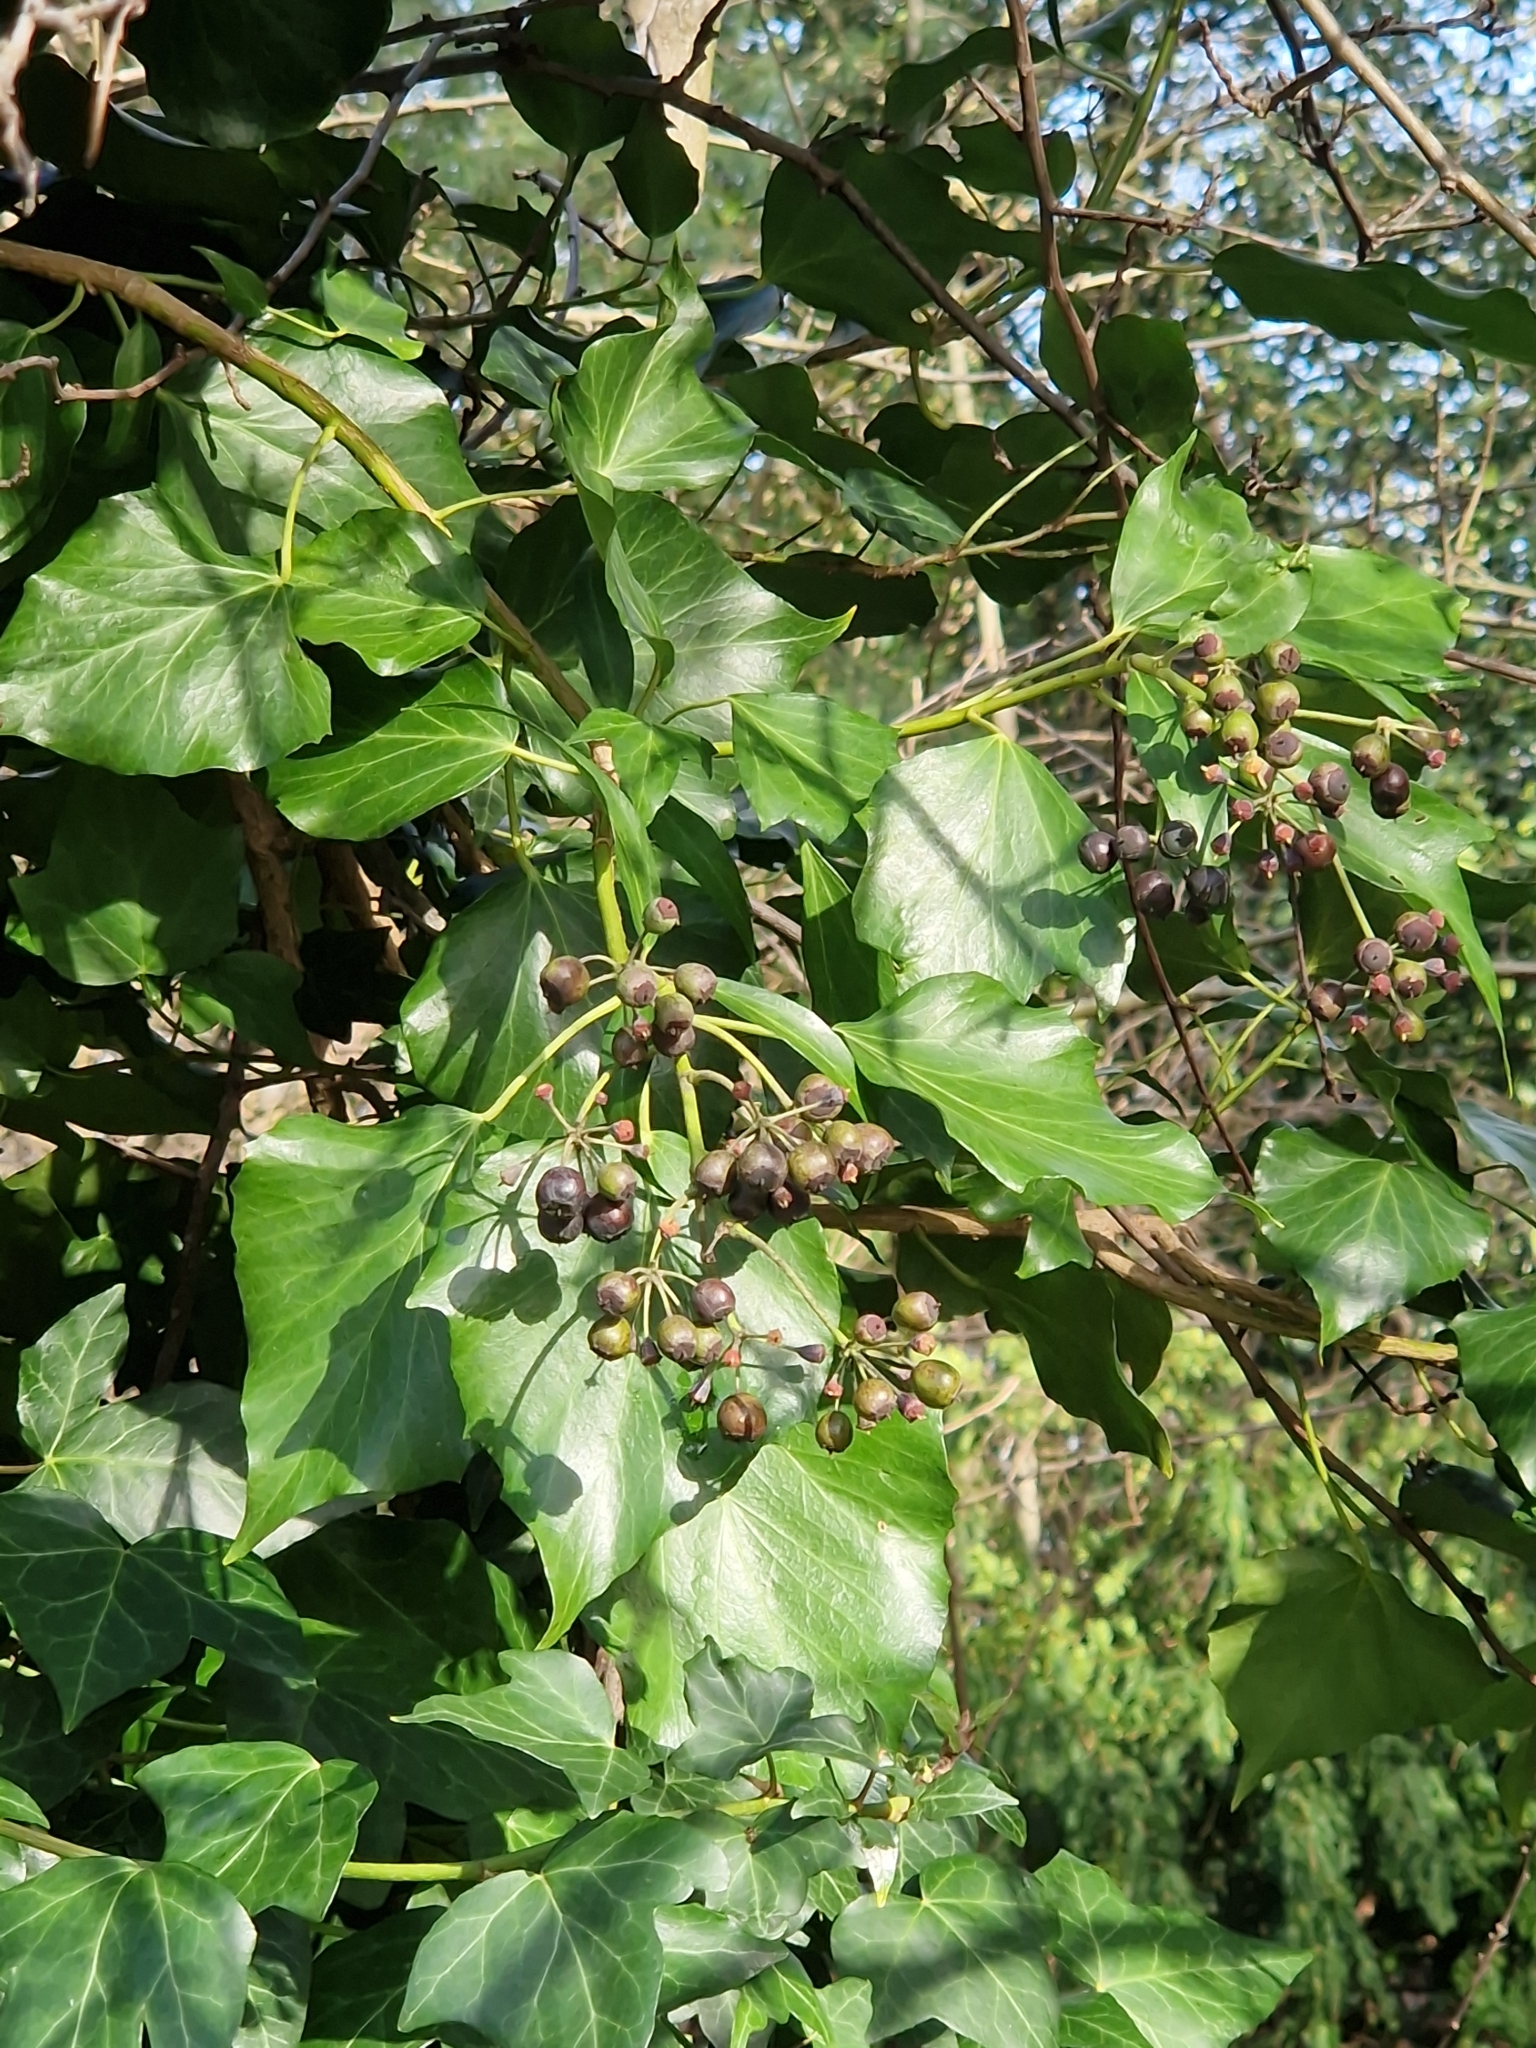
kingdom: Plantae
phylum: Tracheophyta
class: Magnoliopsida
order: Apiales
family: Araliaceae
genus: Hedera
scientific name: Hedera helix
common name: Ivy
